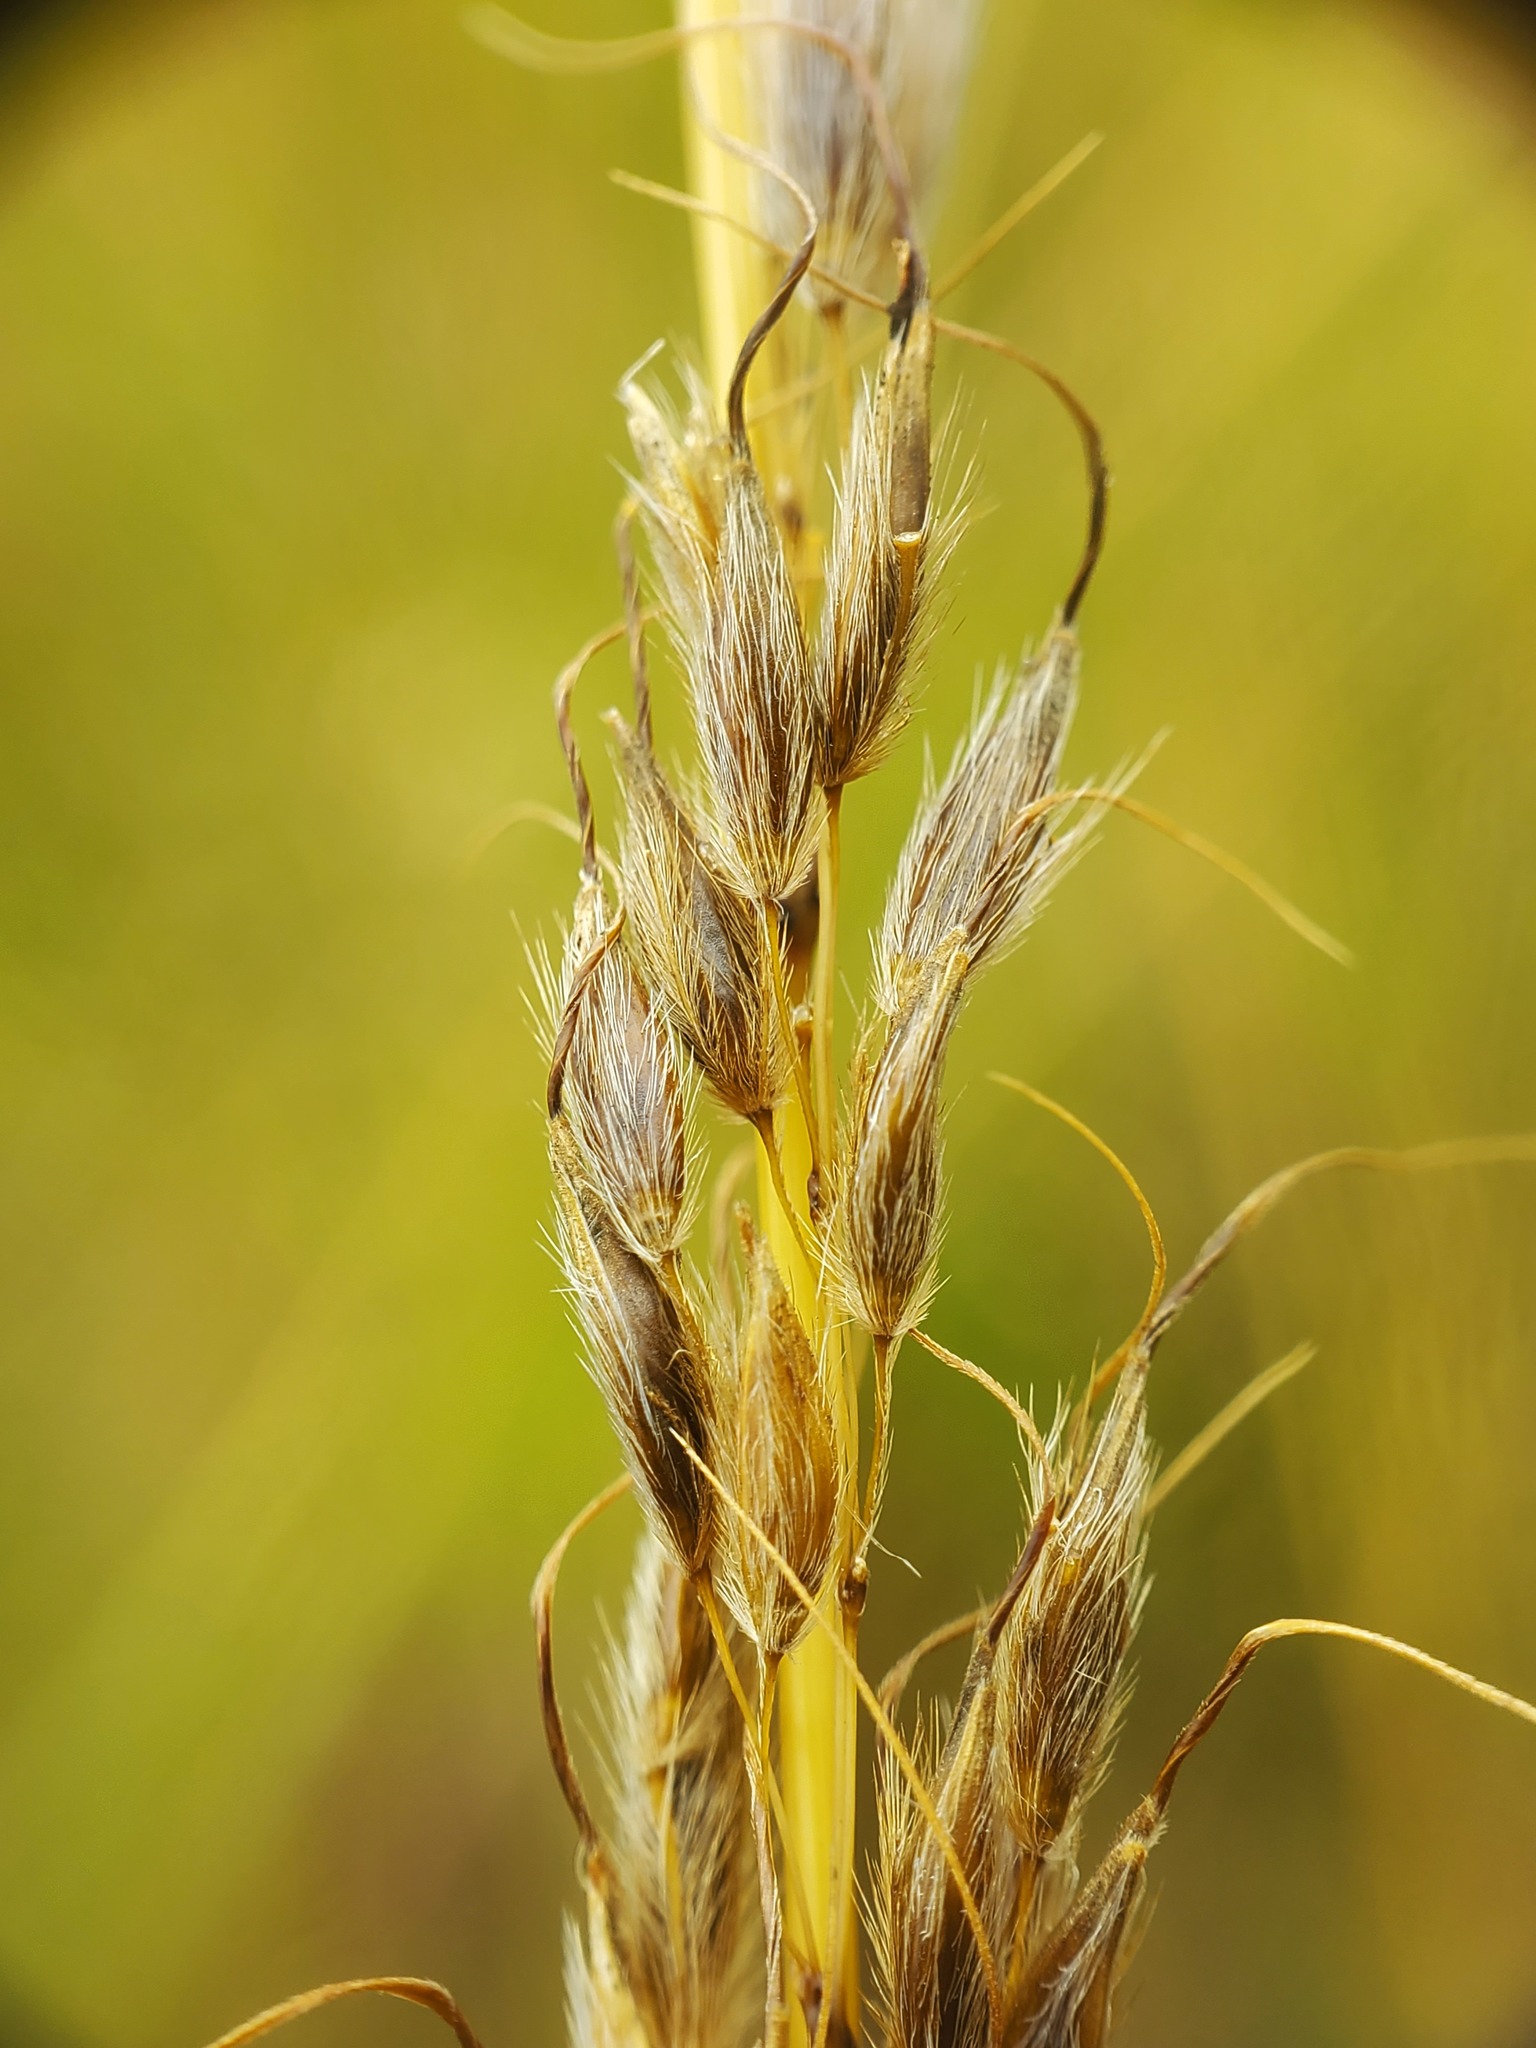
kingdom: Plantae
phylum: Tracheophyta
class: Liliopsida
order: Poales
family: Poaceae
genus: Sorghastrum
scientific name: Sorghastrum nutans
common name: Indian grass
